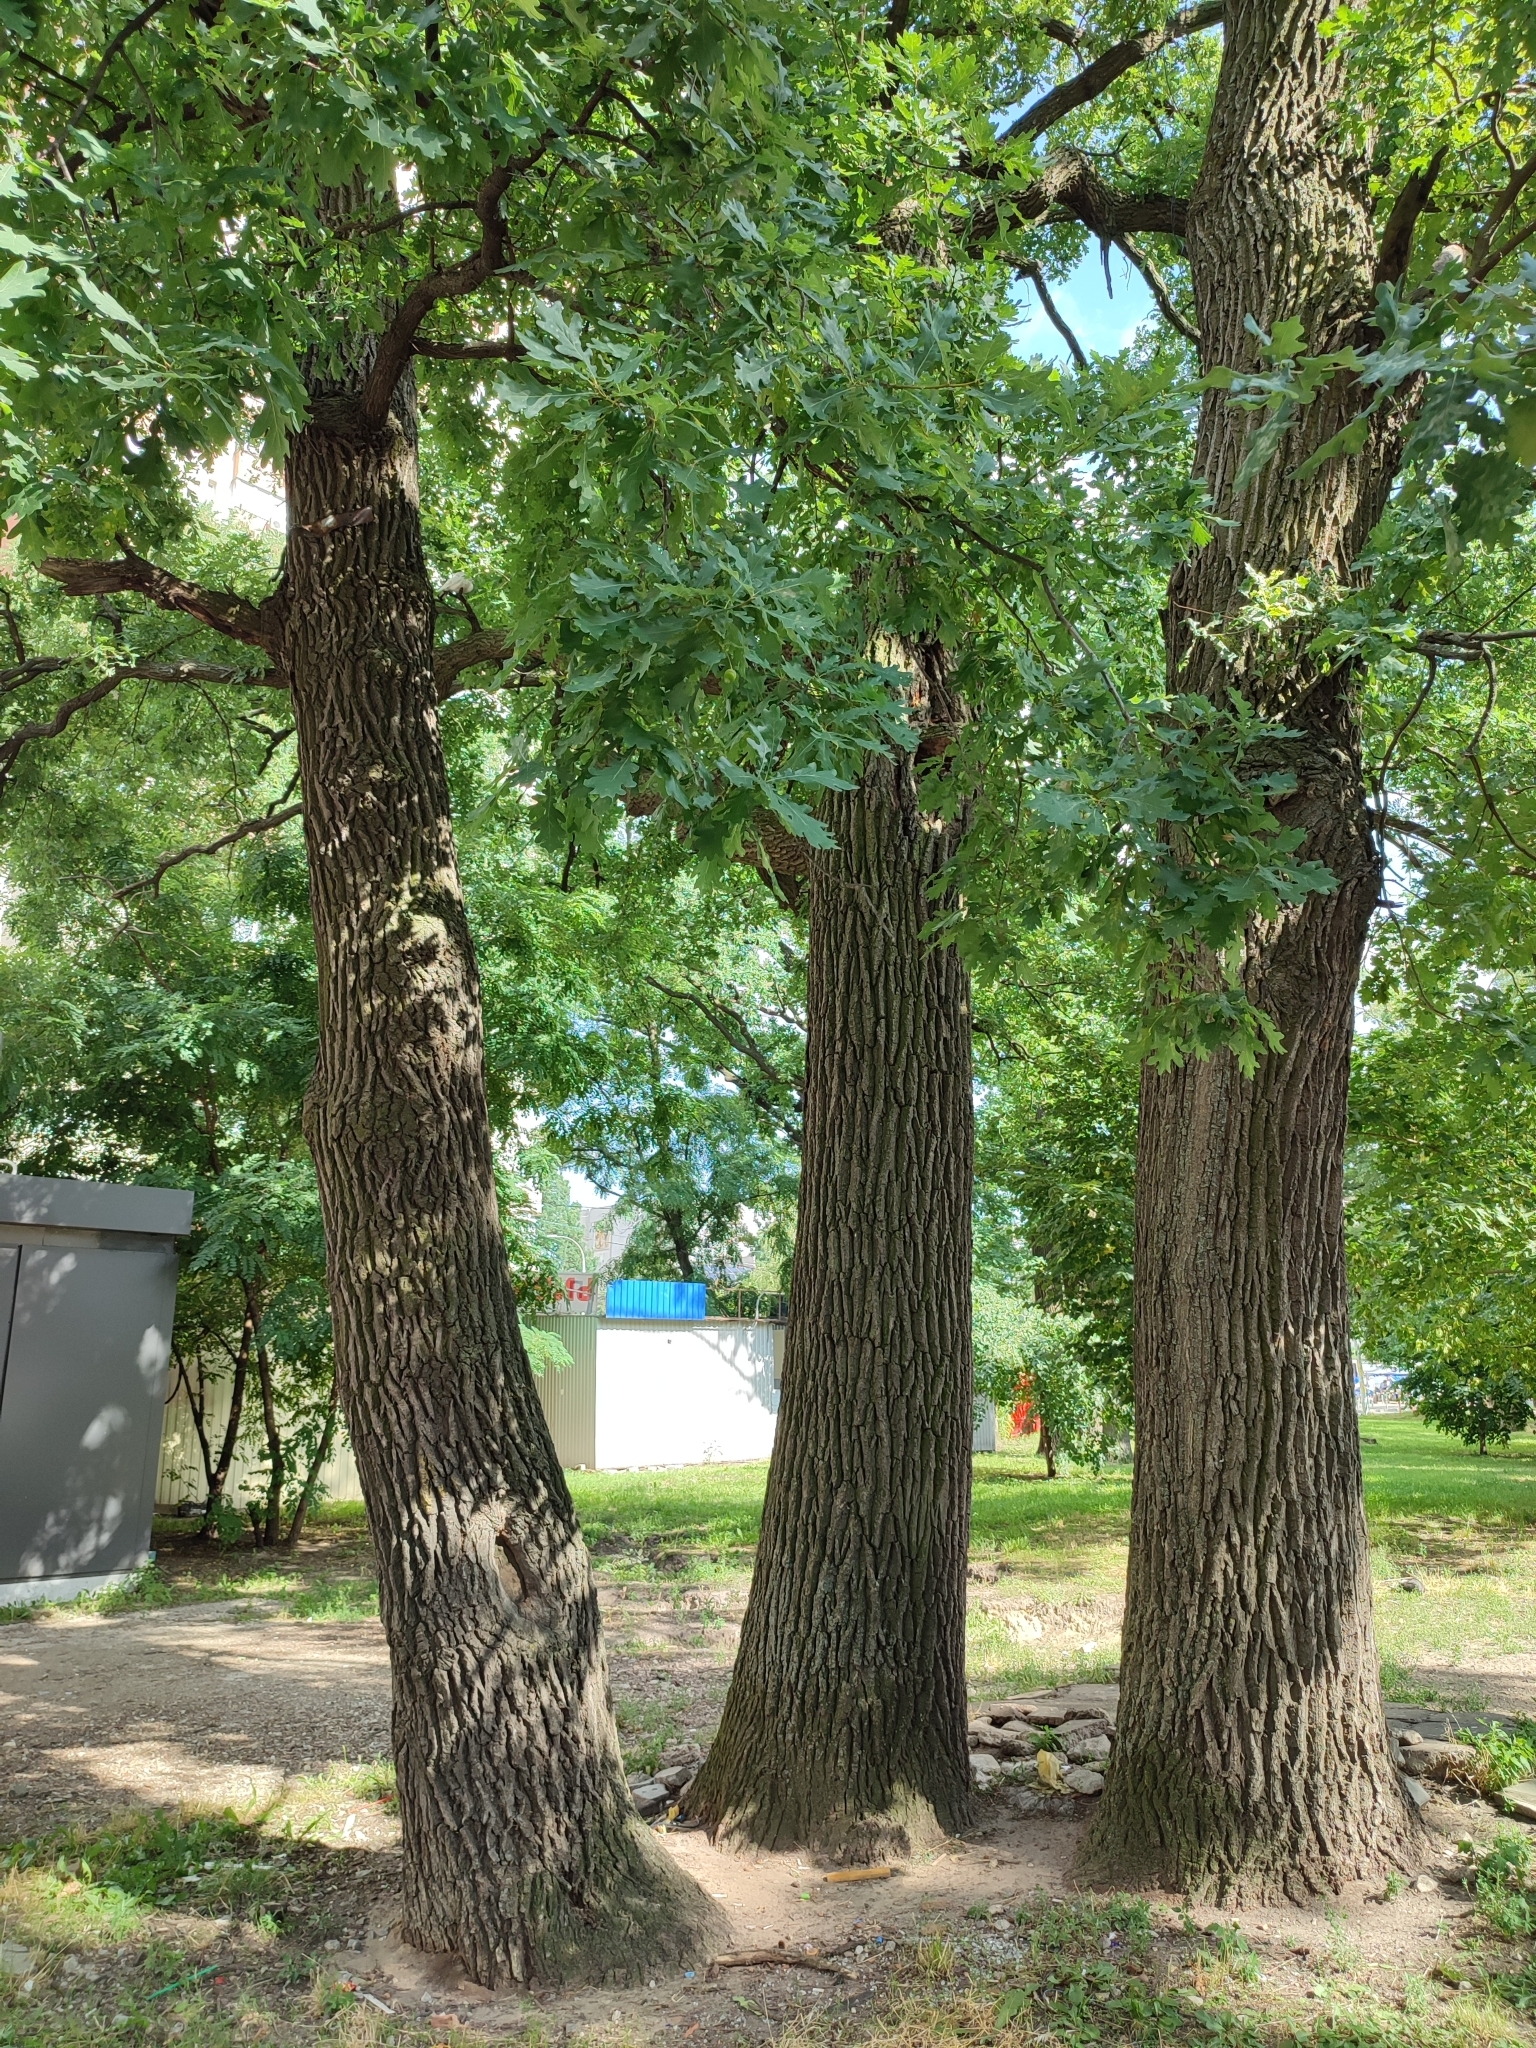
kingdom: Plantae
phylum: Tracheophyta
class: Magnoliopsida
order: Fagales
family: Fagaceae
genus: Quercus
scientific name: Quercus robur
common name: Pedunculate oak
